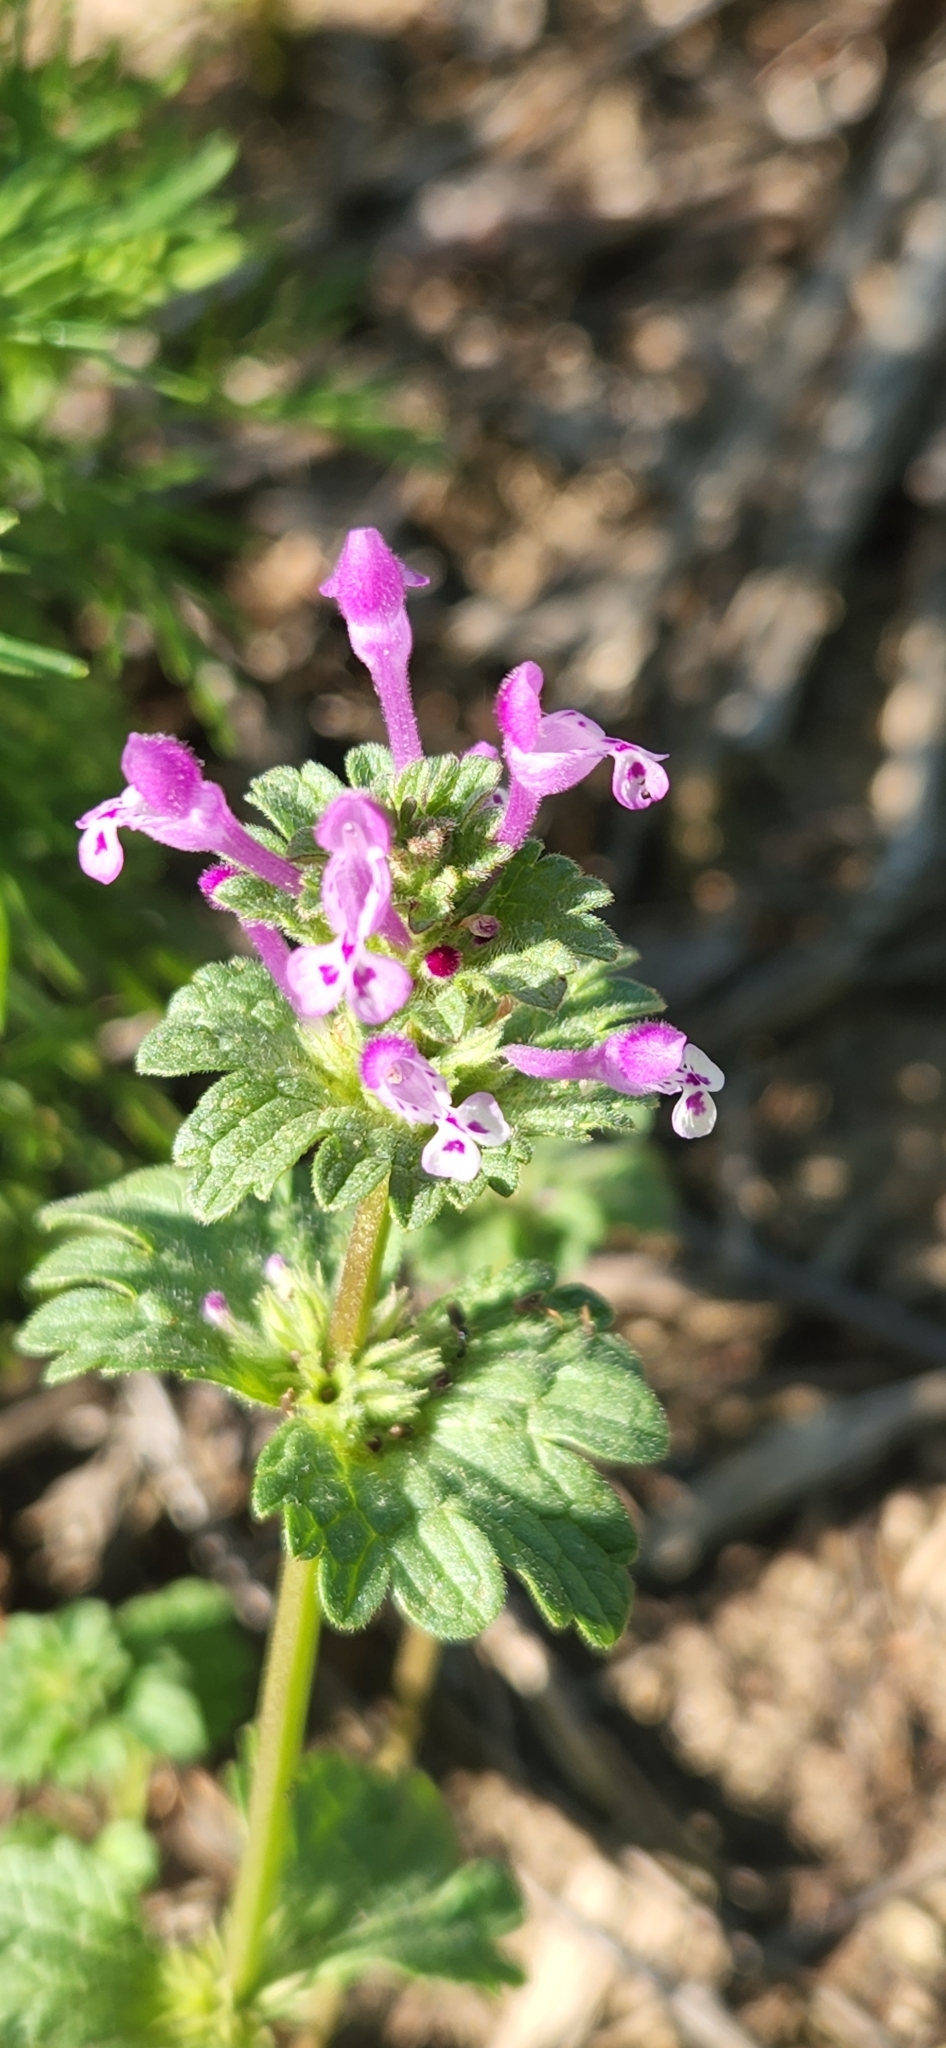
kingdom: Plantae
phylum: Tracheophyta
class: Magnoliopsida
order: Lamiales
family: Lamiaceae
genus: Lamium
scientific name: Lamium amplexicaule
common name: Henbit dead-nettle
